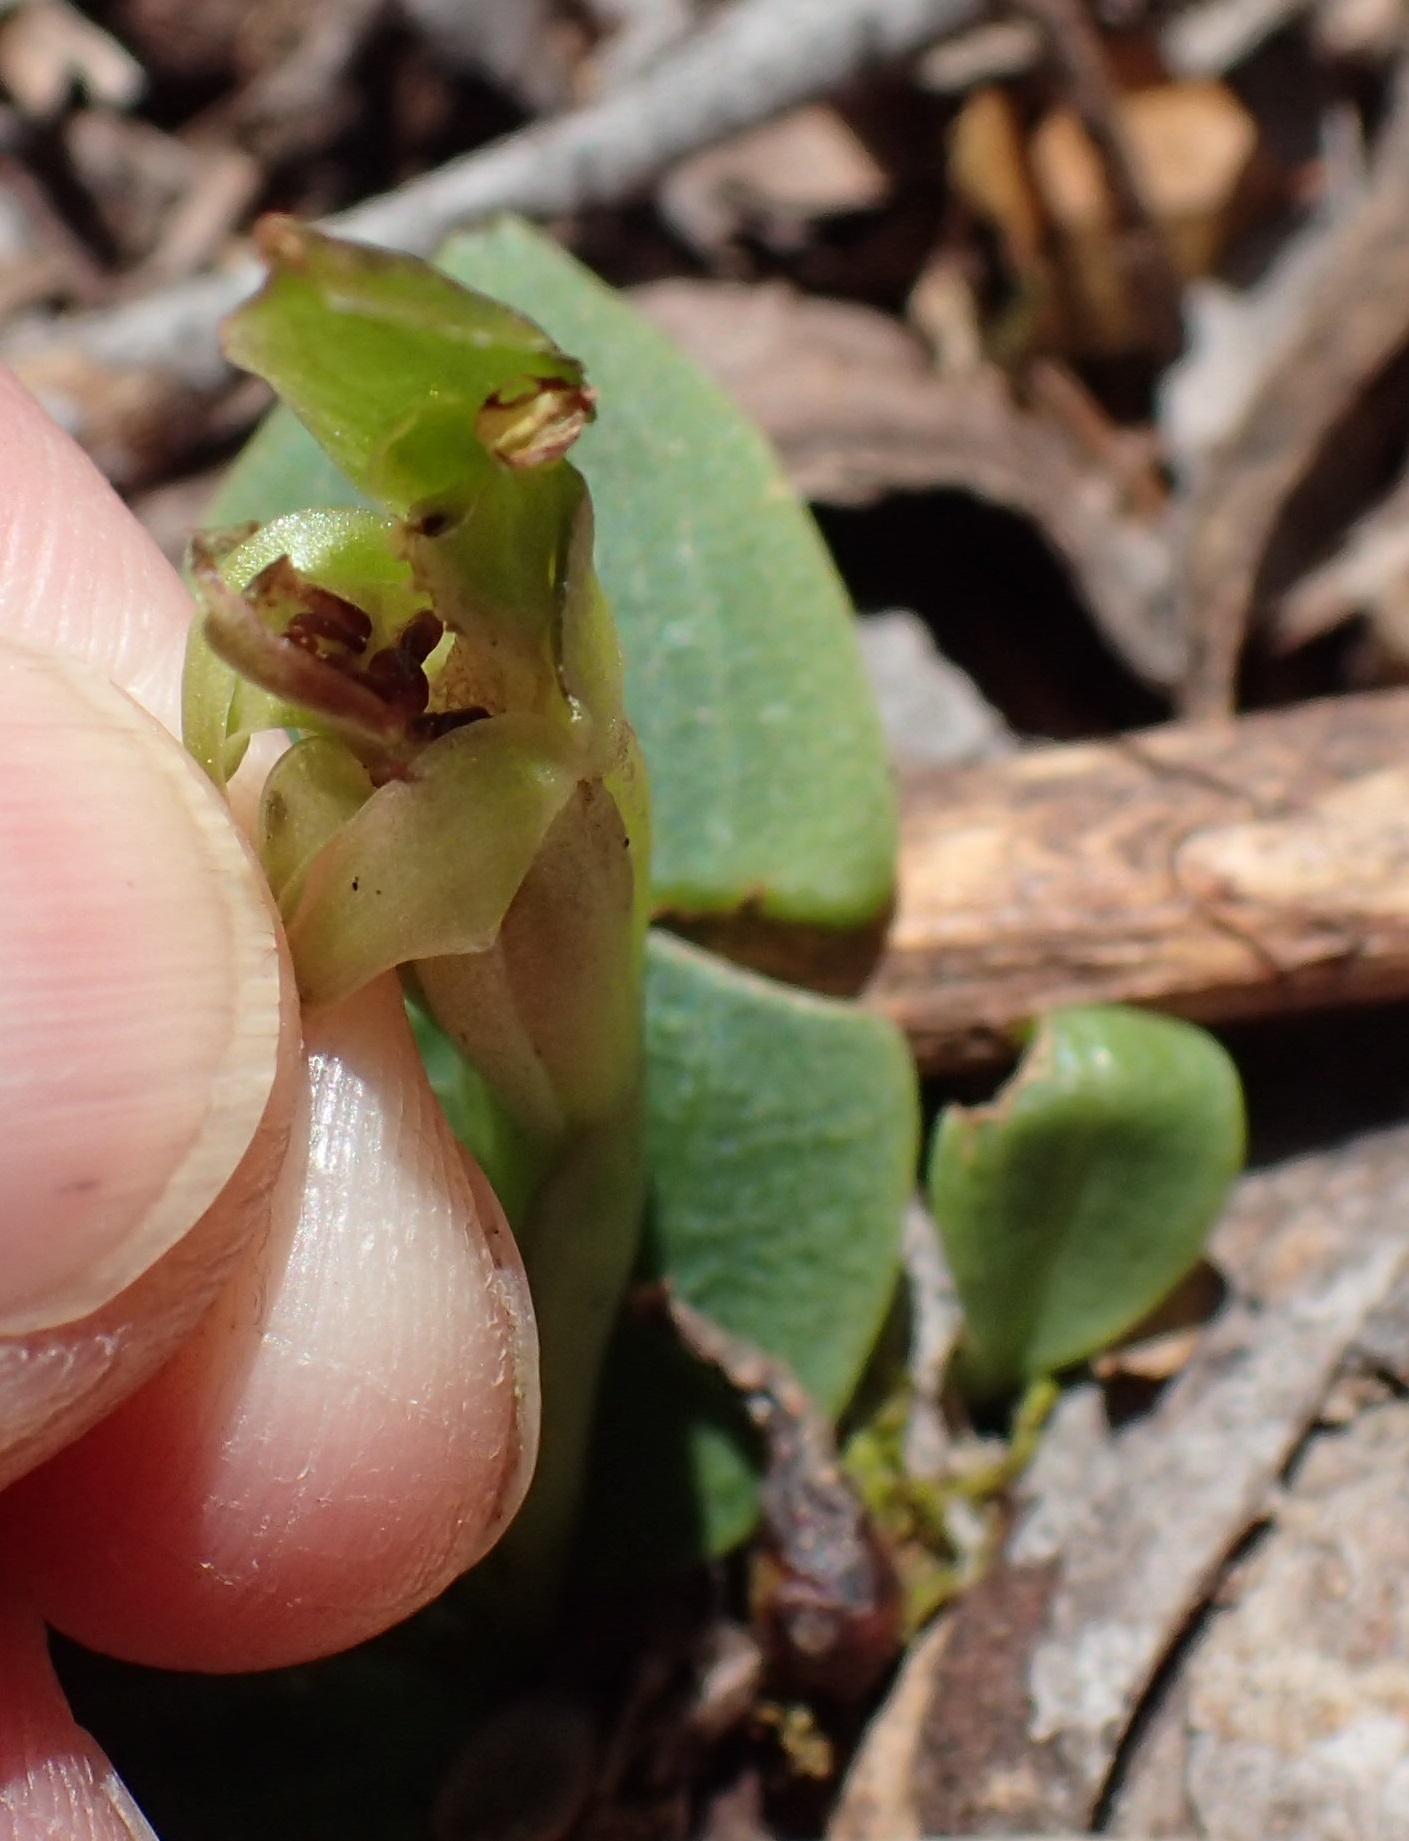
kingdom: Plantae
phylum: Tracheophyta
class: Liliopsida
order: Asparagales
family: Orchidaceae
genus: Chiloglottis
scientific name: Chiloglottis cornuta
